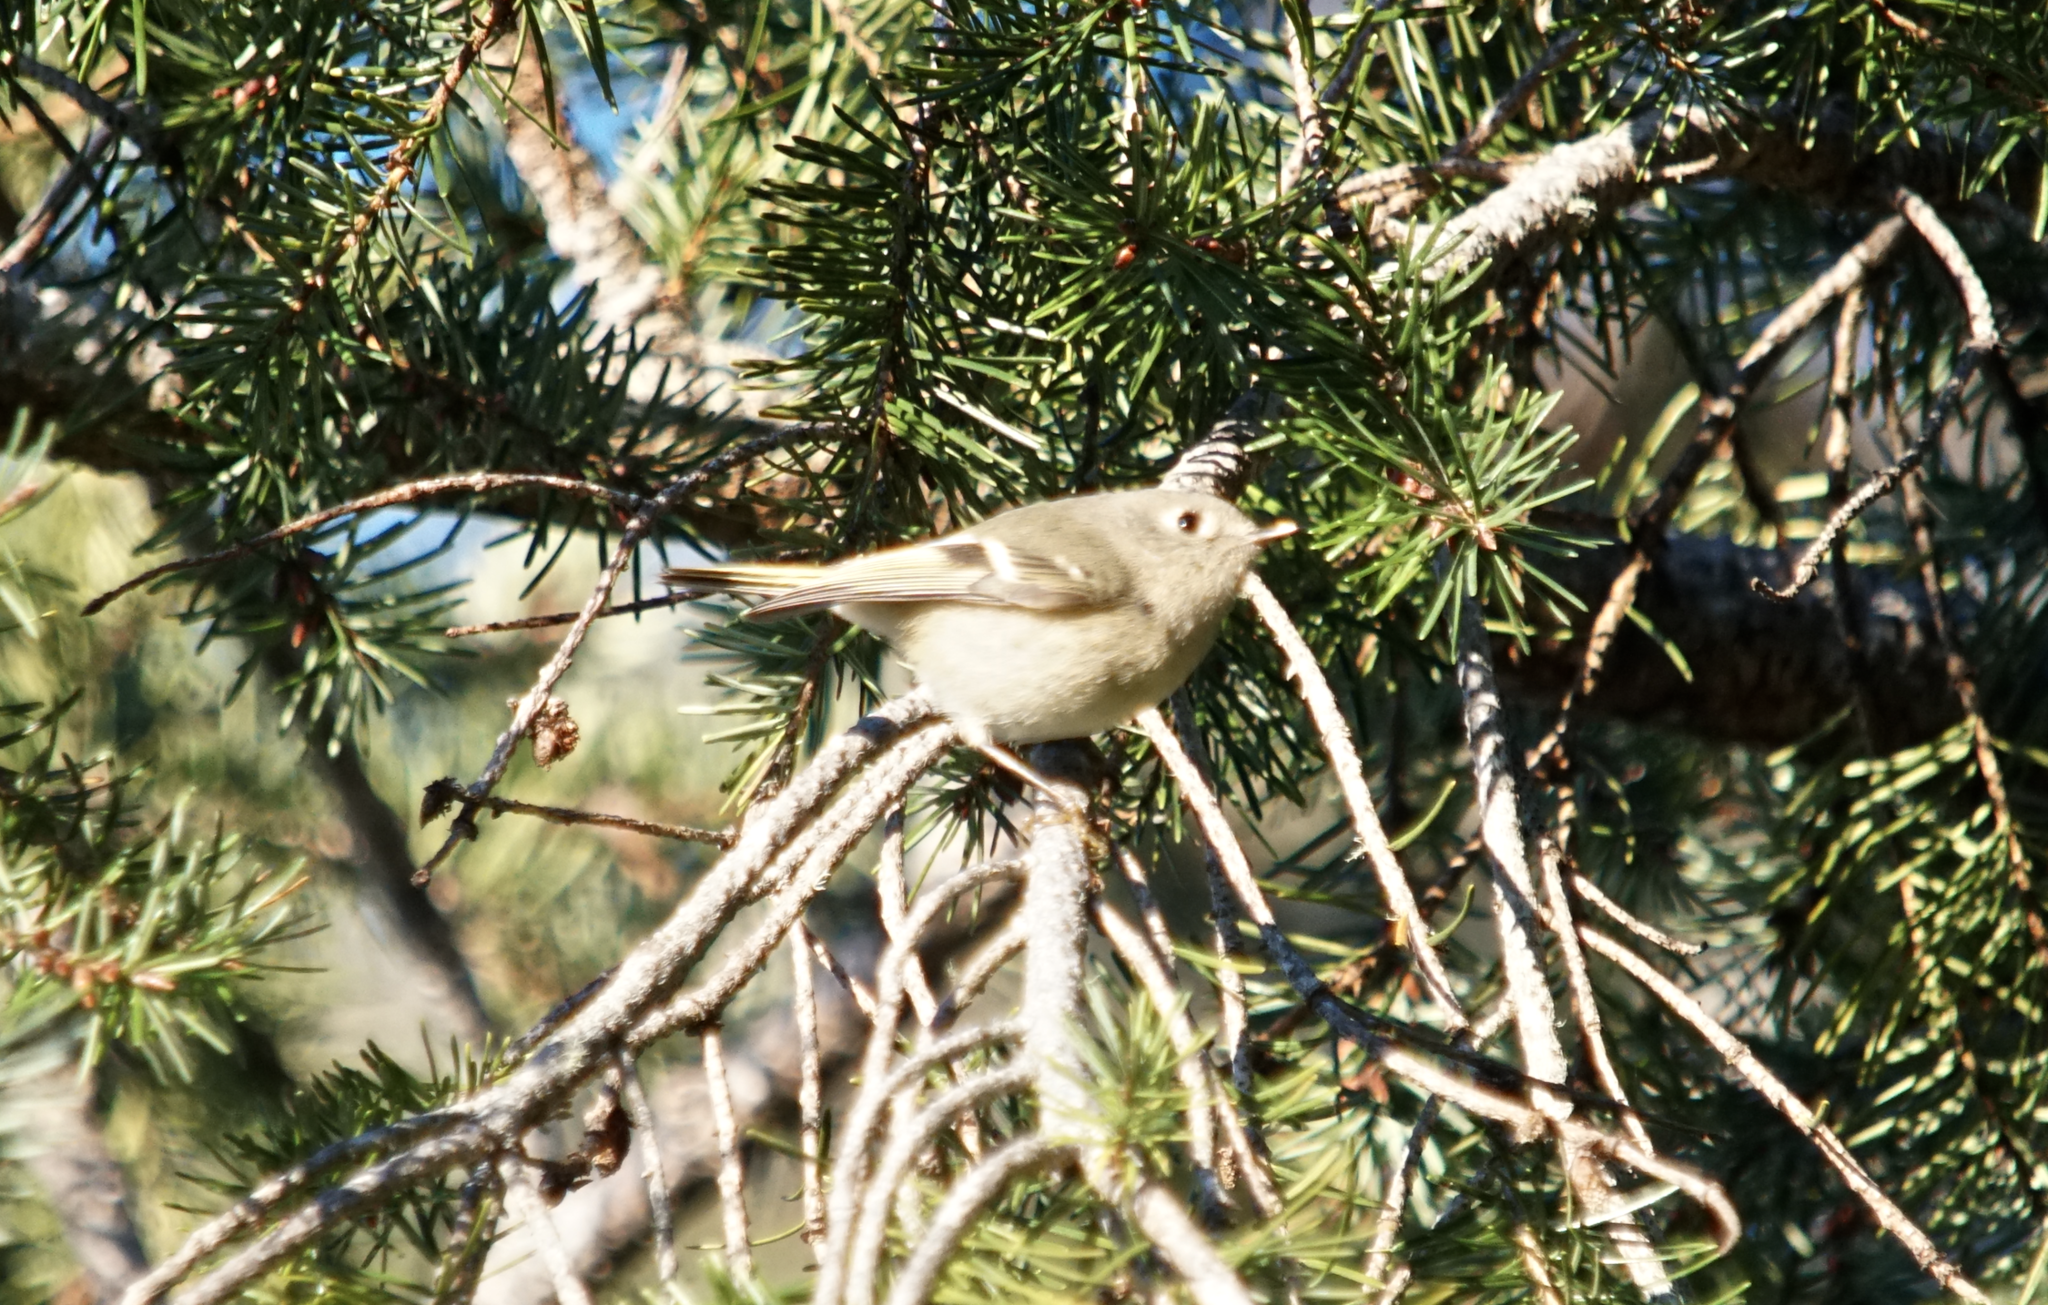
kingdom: Animalia
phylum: Chordata
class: Aves
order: Passeriformes
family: Regulidae
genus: Regulus
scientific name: Regulus calendula
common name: Ruby-crowned kinglet
